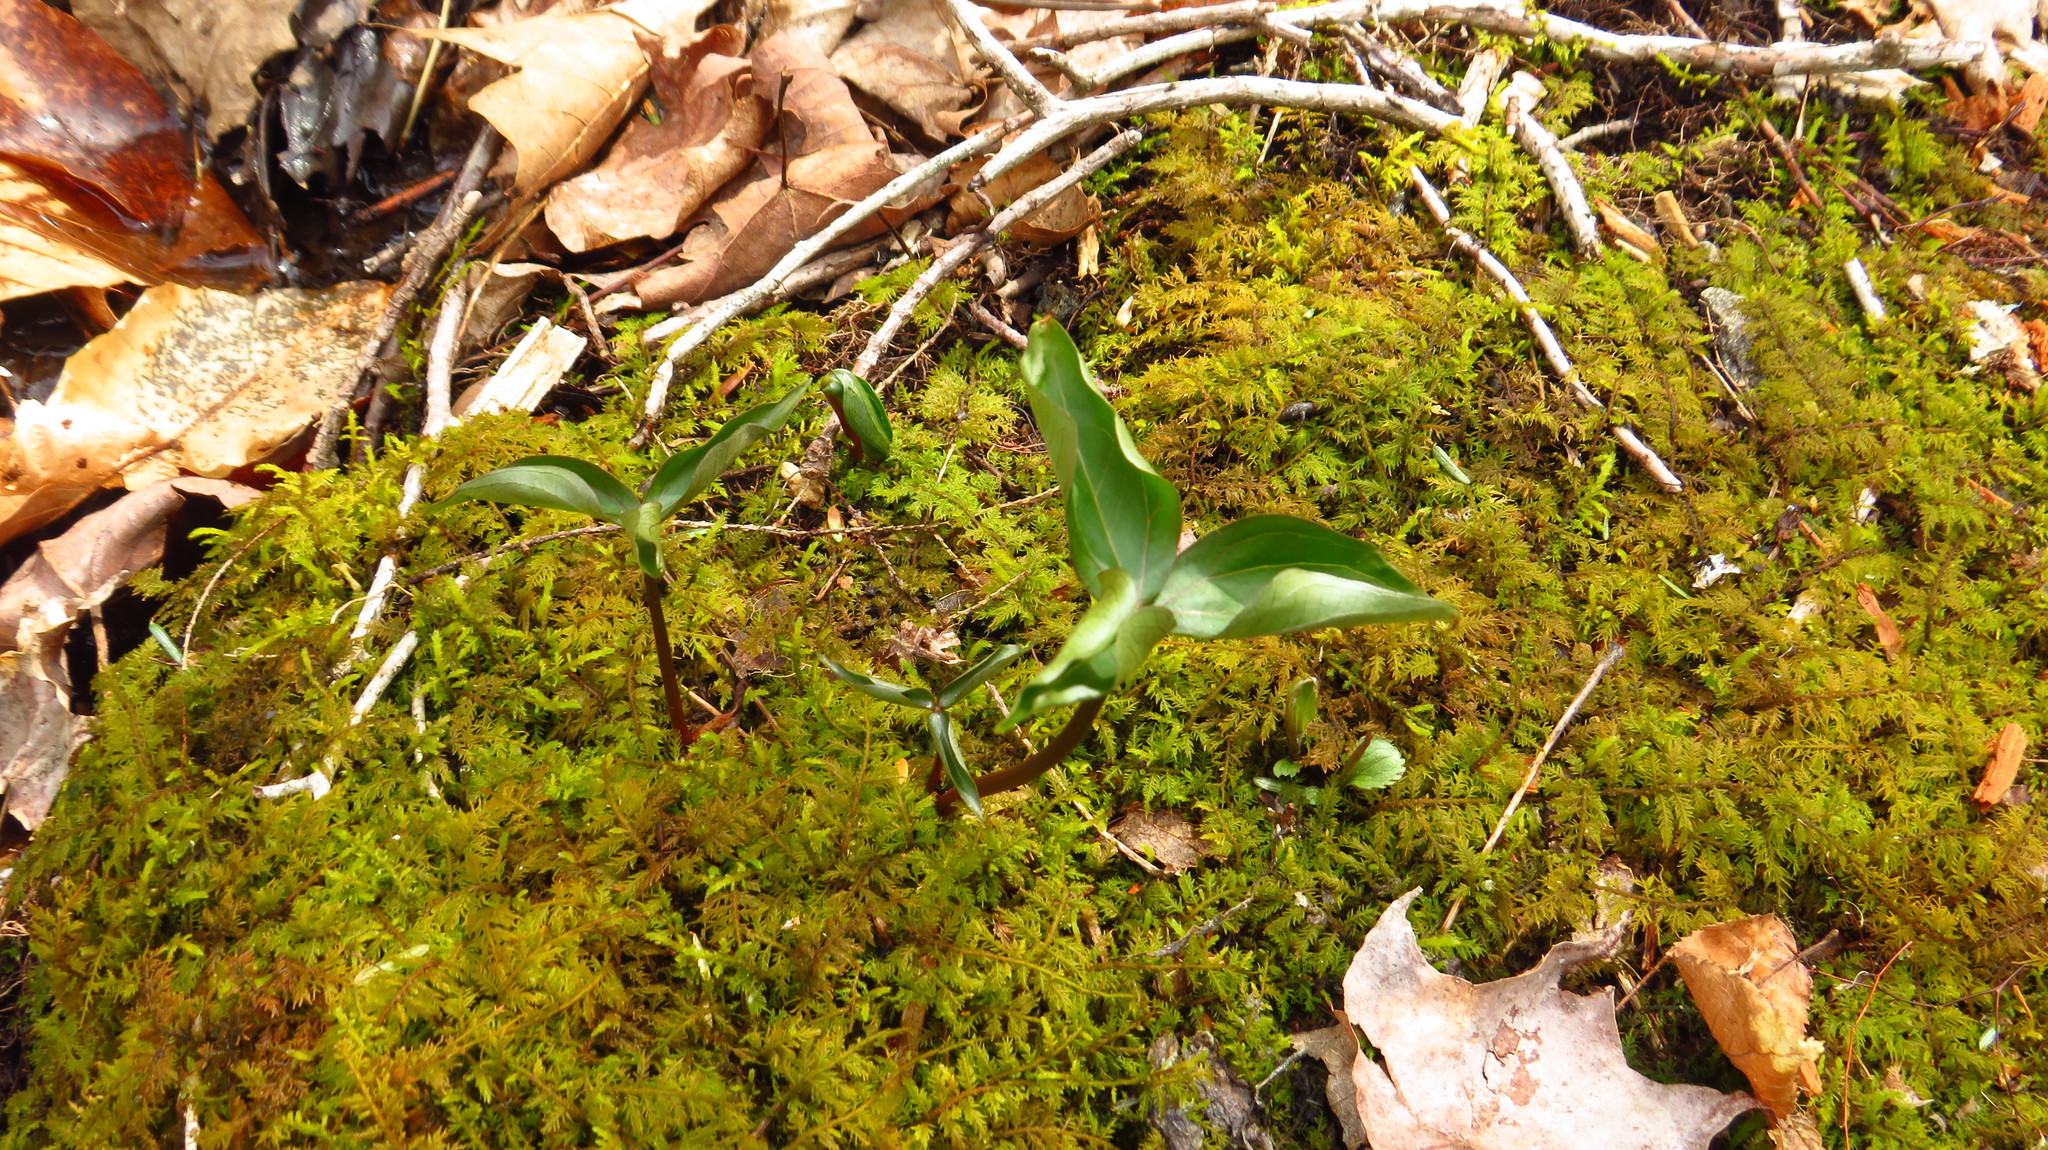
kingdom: Plantae
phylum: Tracheophyta
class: Liliopsida
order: Liliales
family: Melanthiaceae
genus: Trillium
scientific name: Trillium
